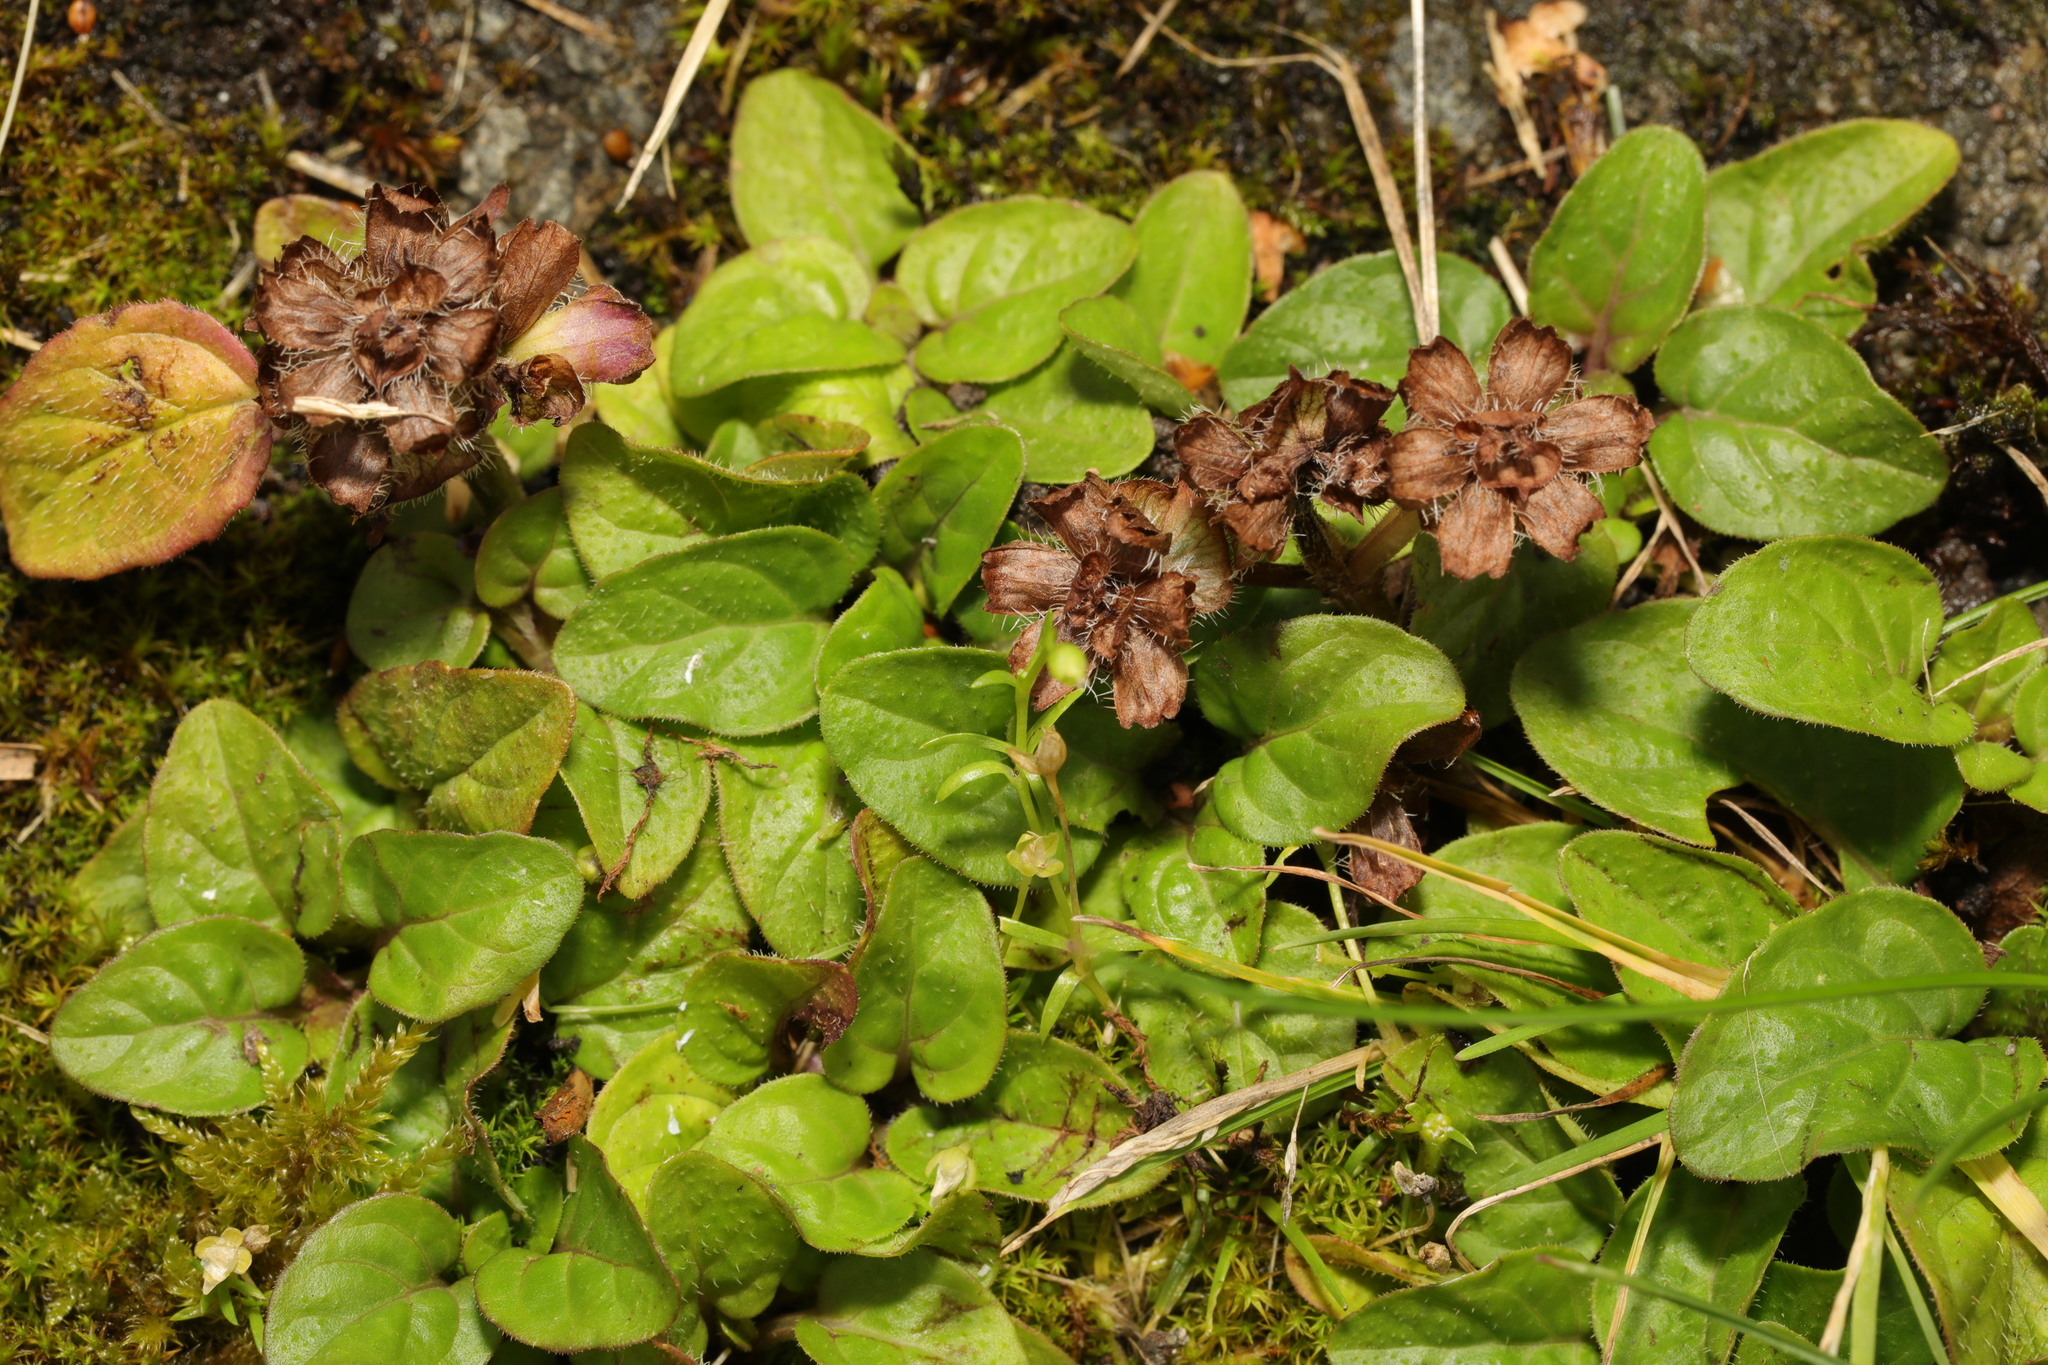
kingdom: Plantae
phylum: Tracheophyta
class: Magnoliopsida
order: Lamiales
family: Lamiaceae
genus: Prunella
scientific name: Prunella vulgaris
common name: Heal-all
